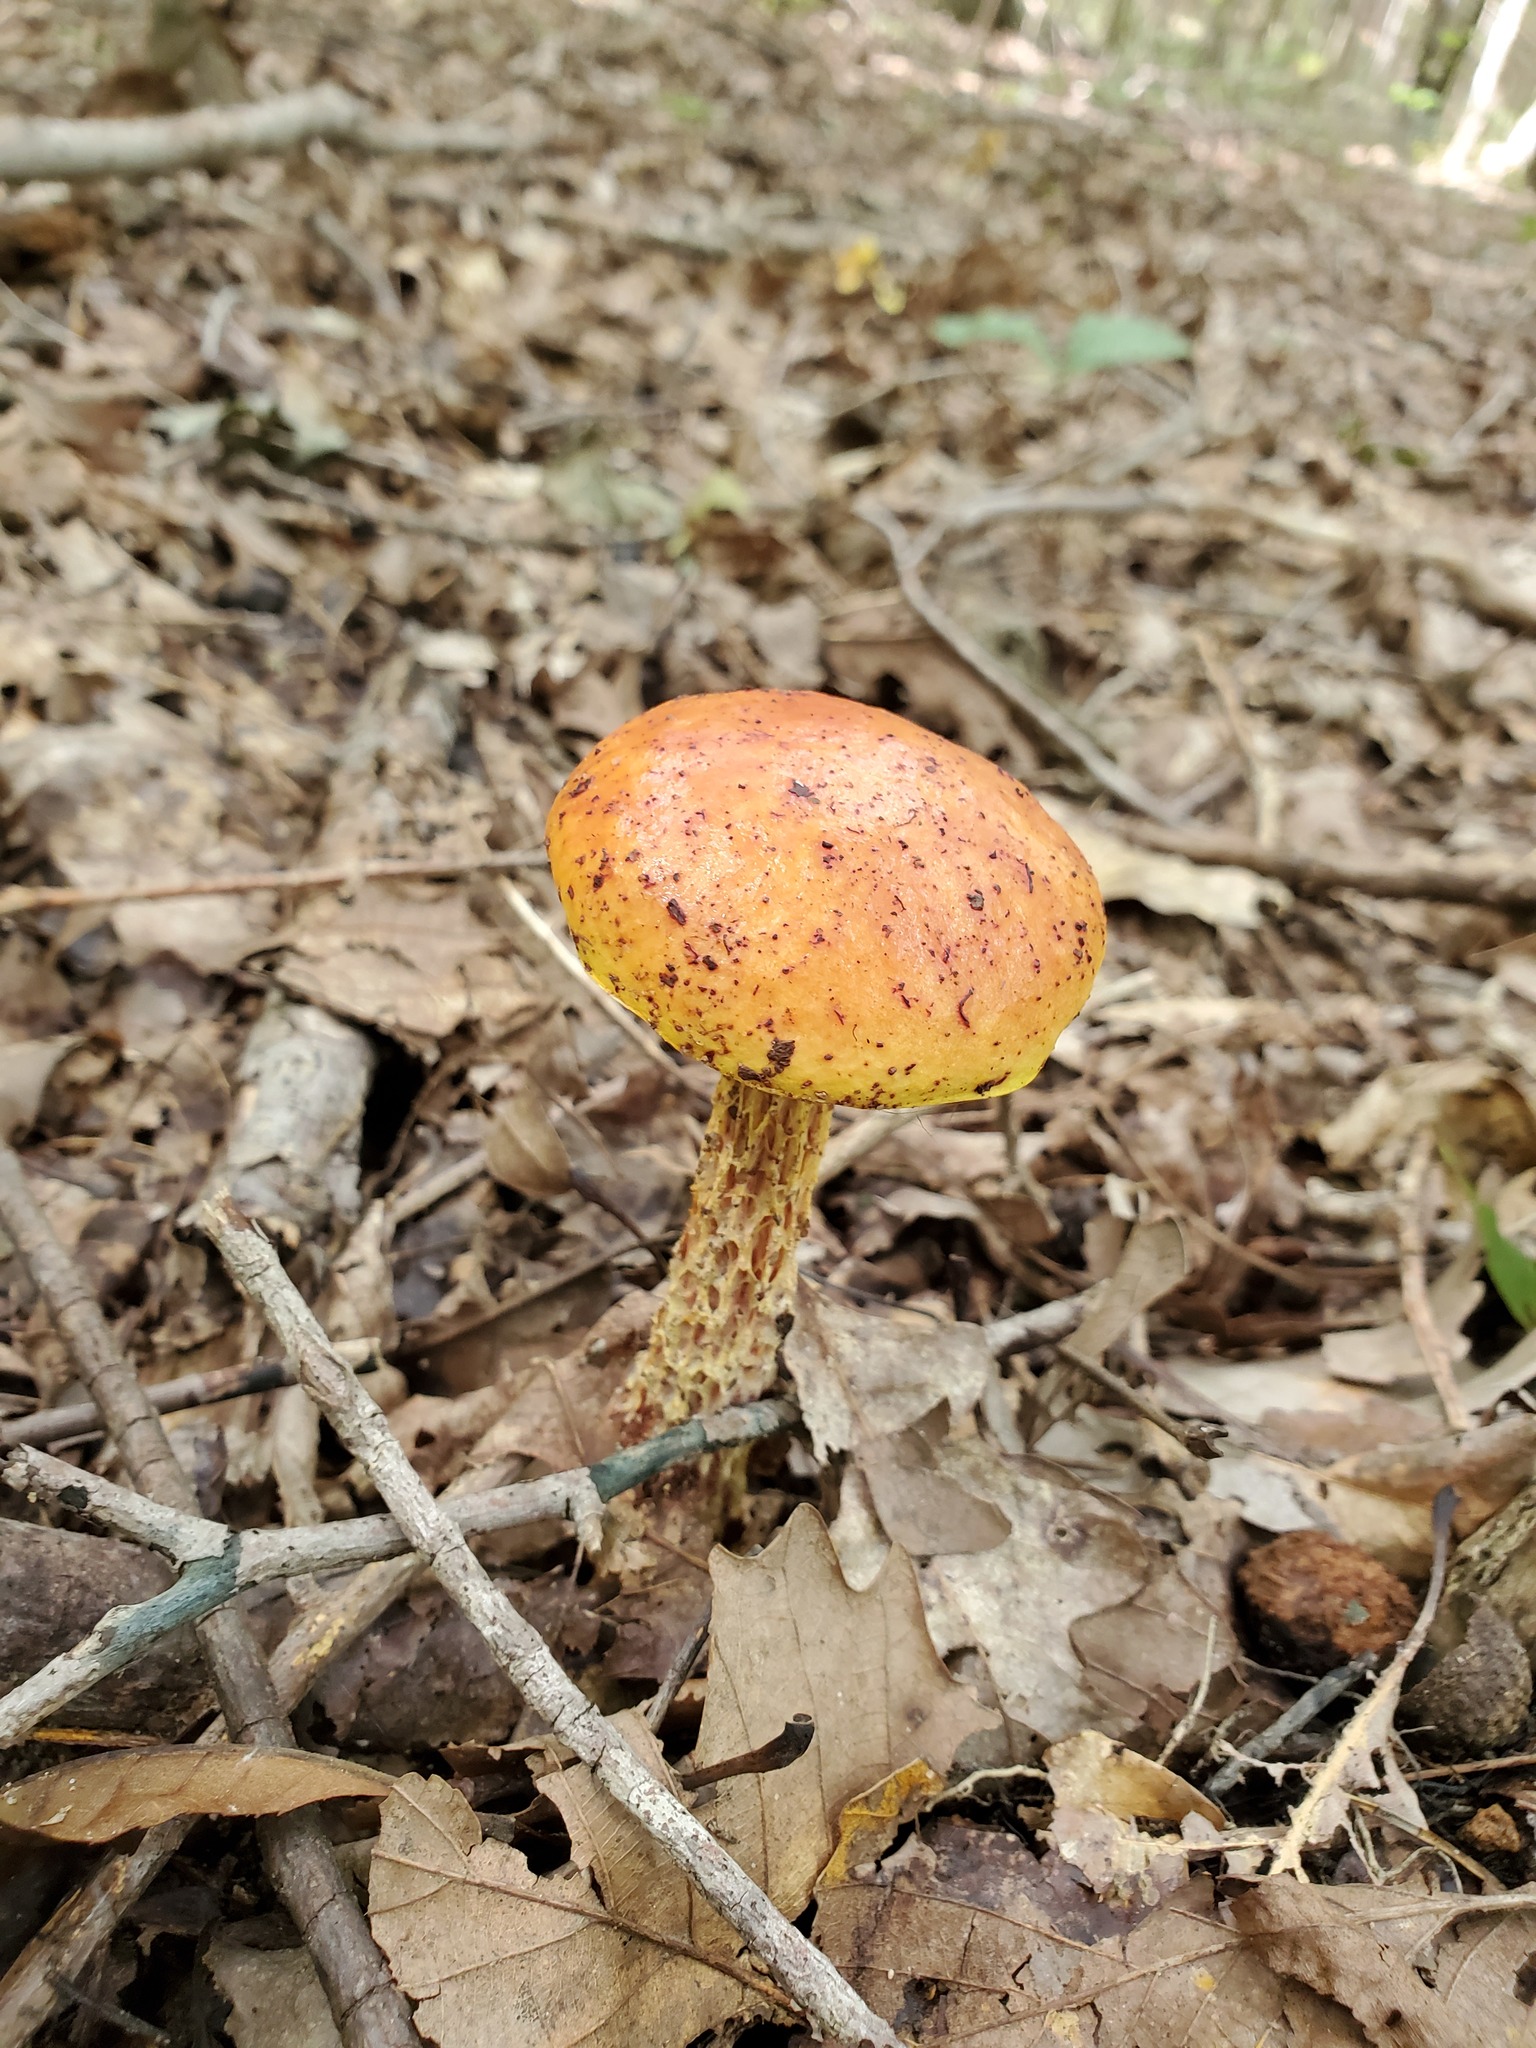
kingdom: Fungi
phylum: Basidiomycota
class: Agaricomycetes
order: Boletales
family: Boletaceae
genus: Aureoboletus
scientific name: Aureoboletus betula
